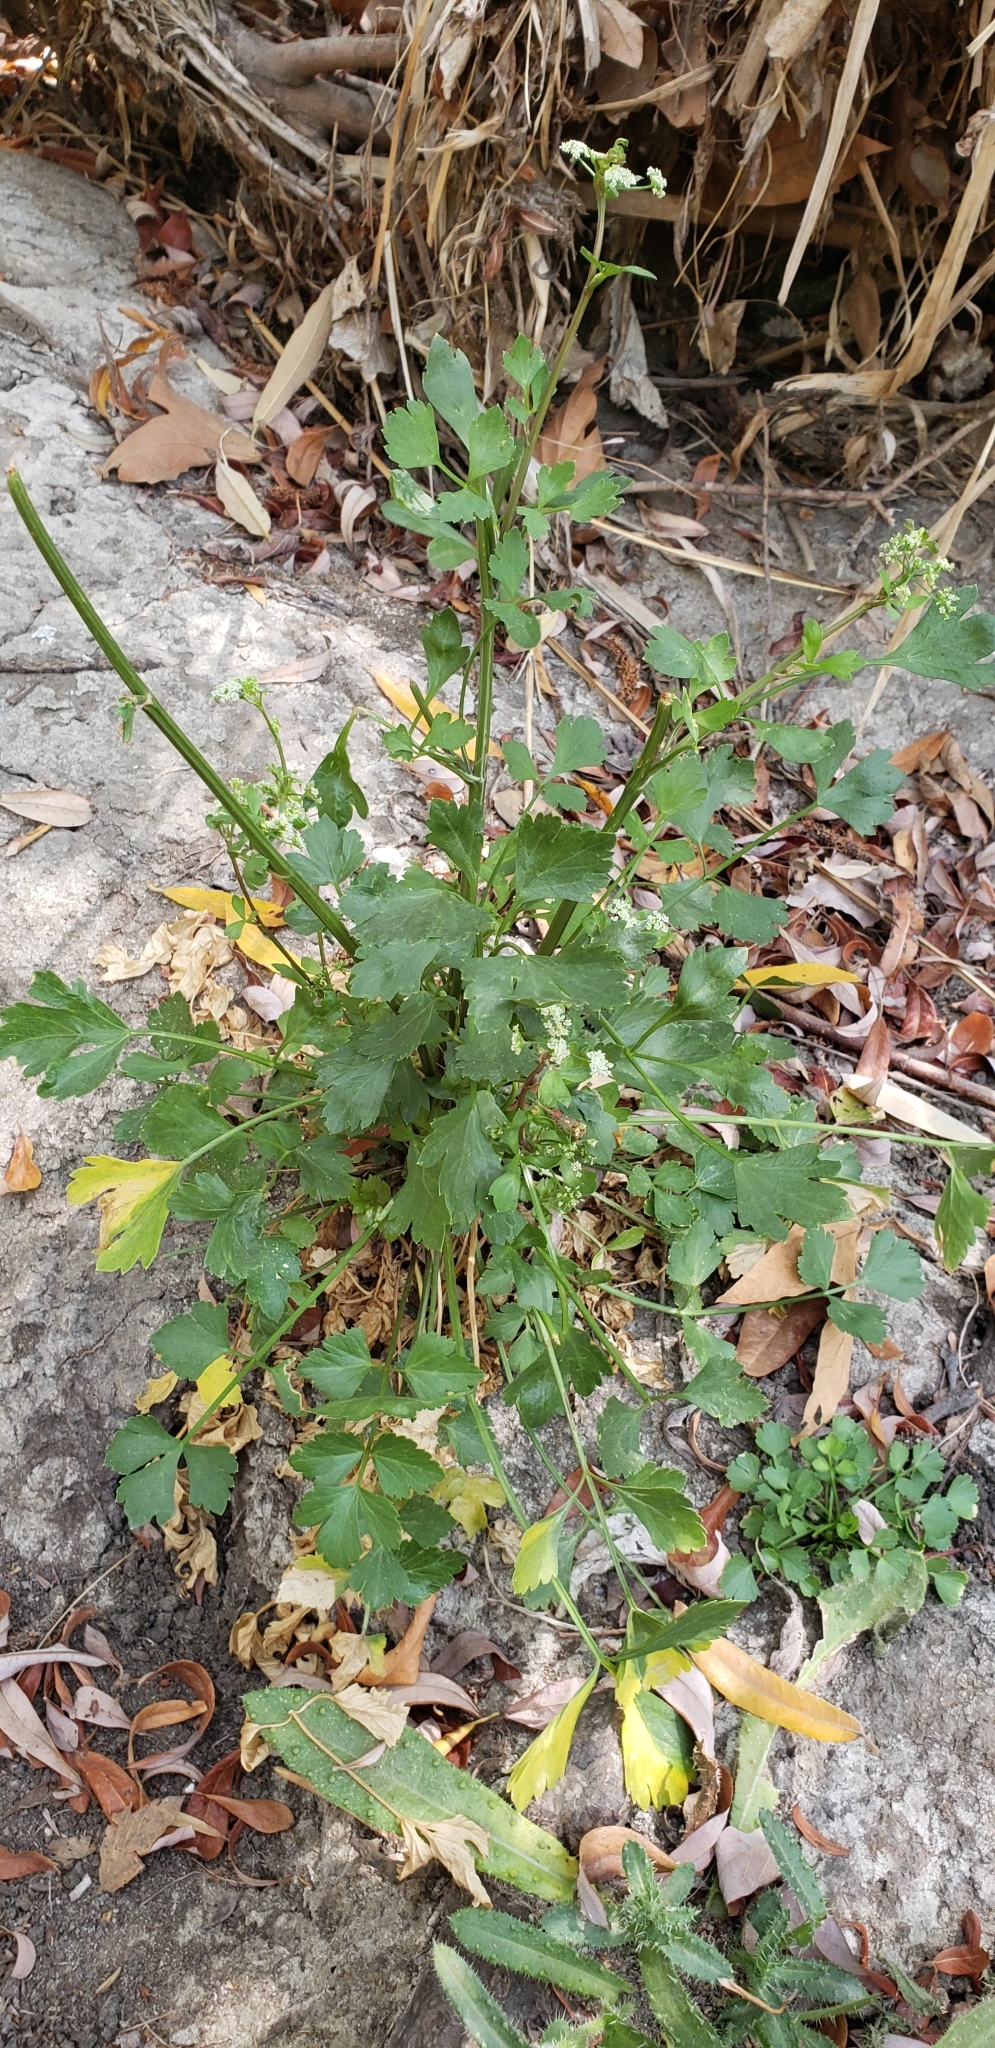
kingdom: Plantae
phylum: Tracheophyta
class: Magnoliopsida
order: Apiales
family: Apiaceae
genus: Apium
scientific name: Apium graveolens
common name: Wild celery
